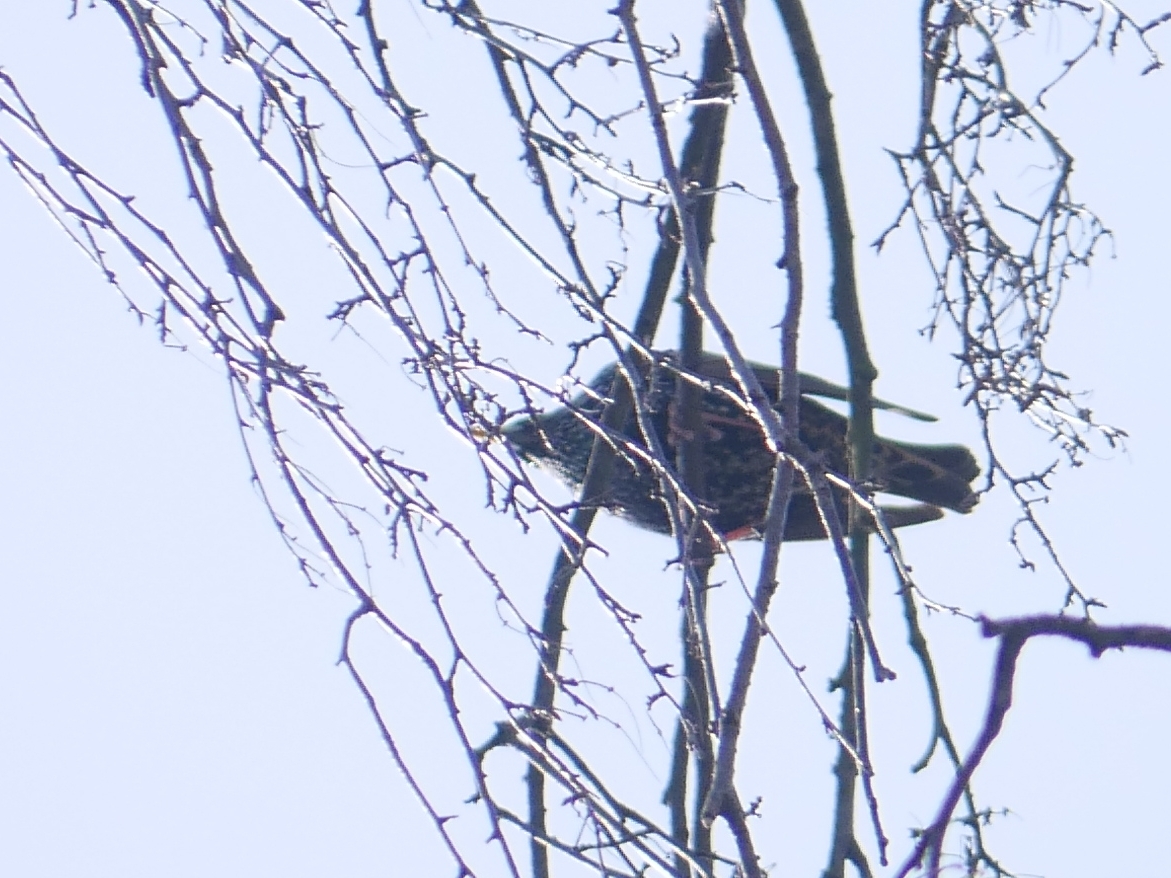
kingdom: Animalia
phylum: Chordata
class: Aves
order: Passeriformes
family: Sturnidae
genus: Sturnus
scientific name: Sturnus vulgaris
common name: Common starling
